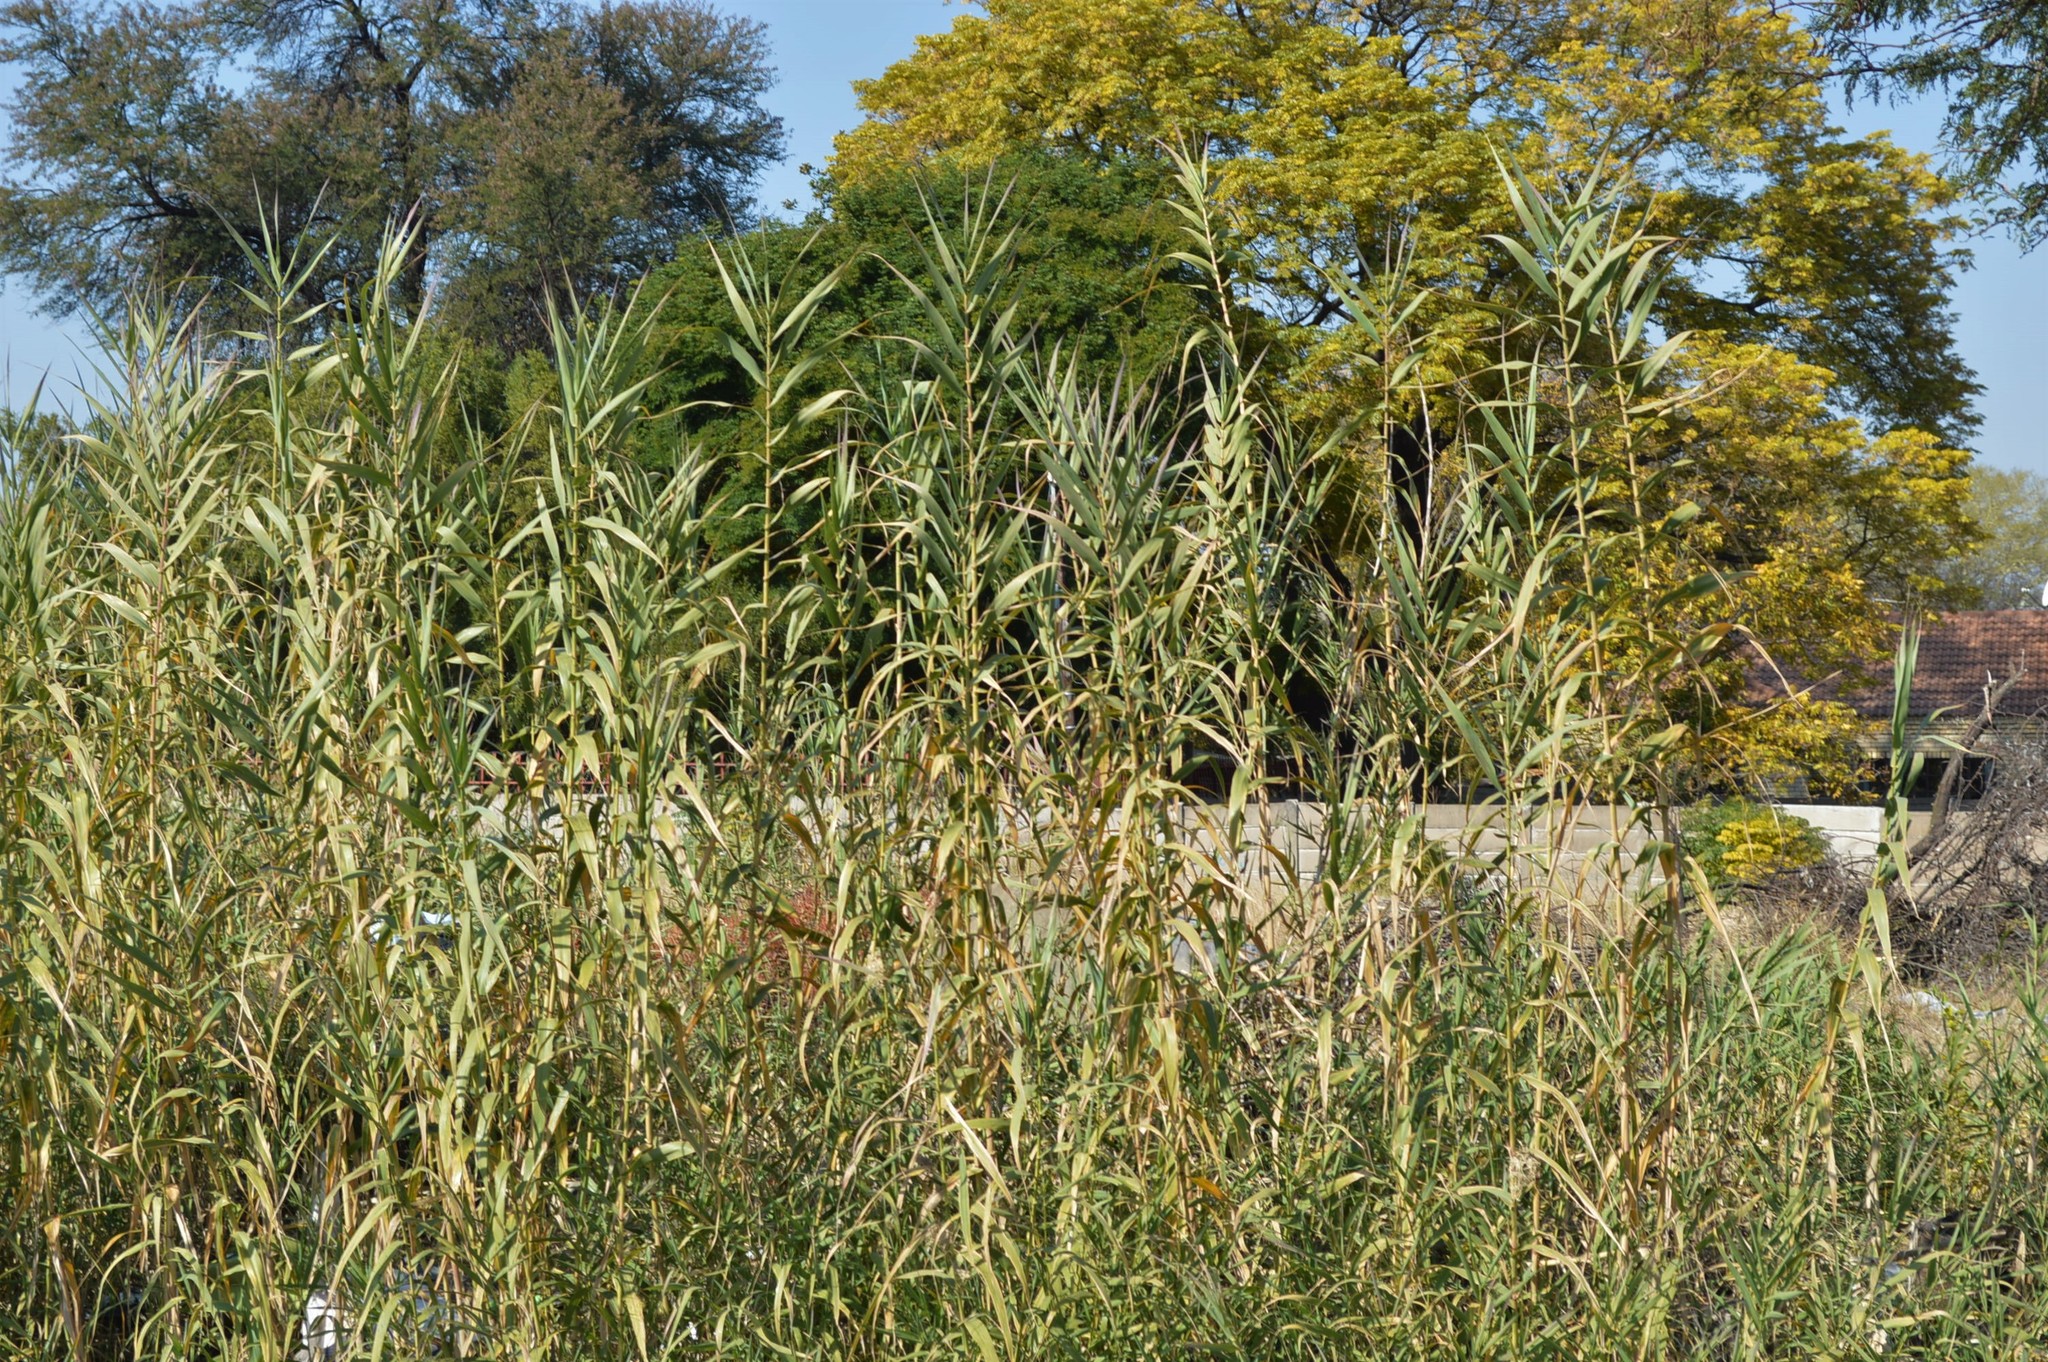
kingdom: Plantae
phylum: Tracheophyta
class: Liliopsida
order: Poales
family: Poaceae
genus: Arundo
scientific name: Arundo donax
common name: Giant reed
